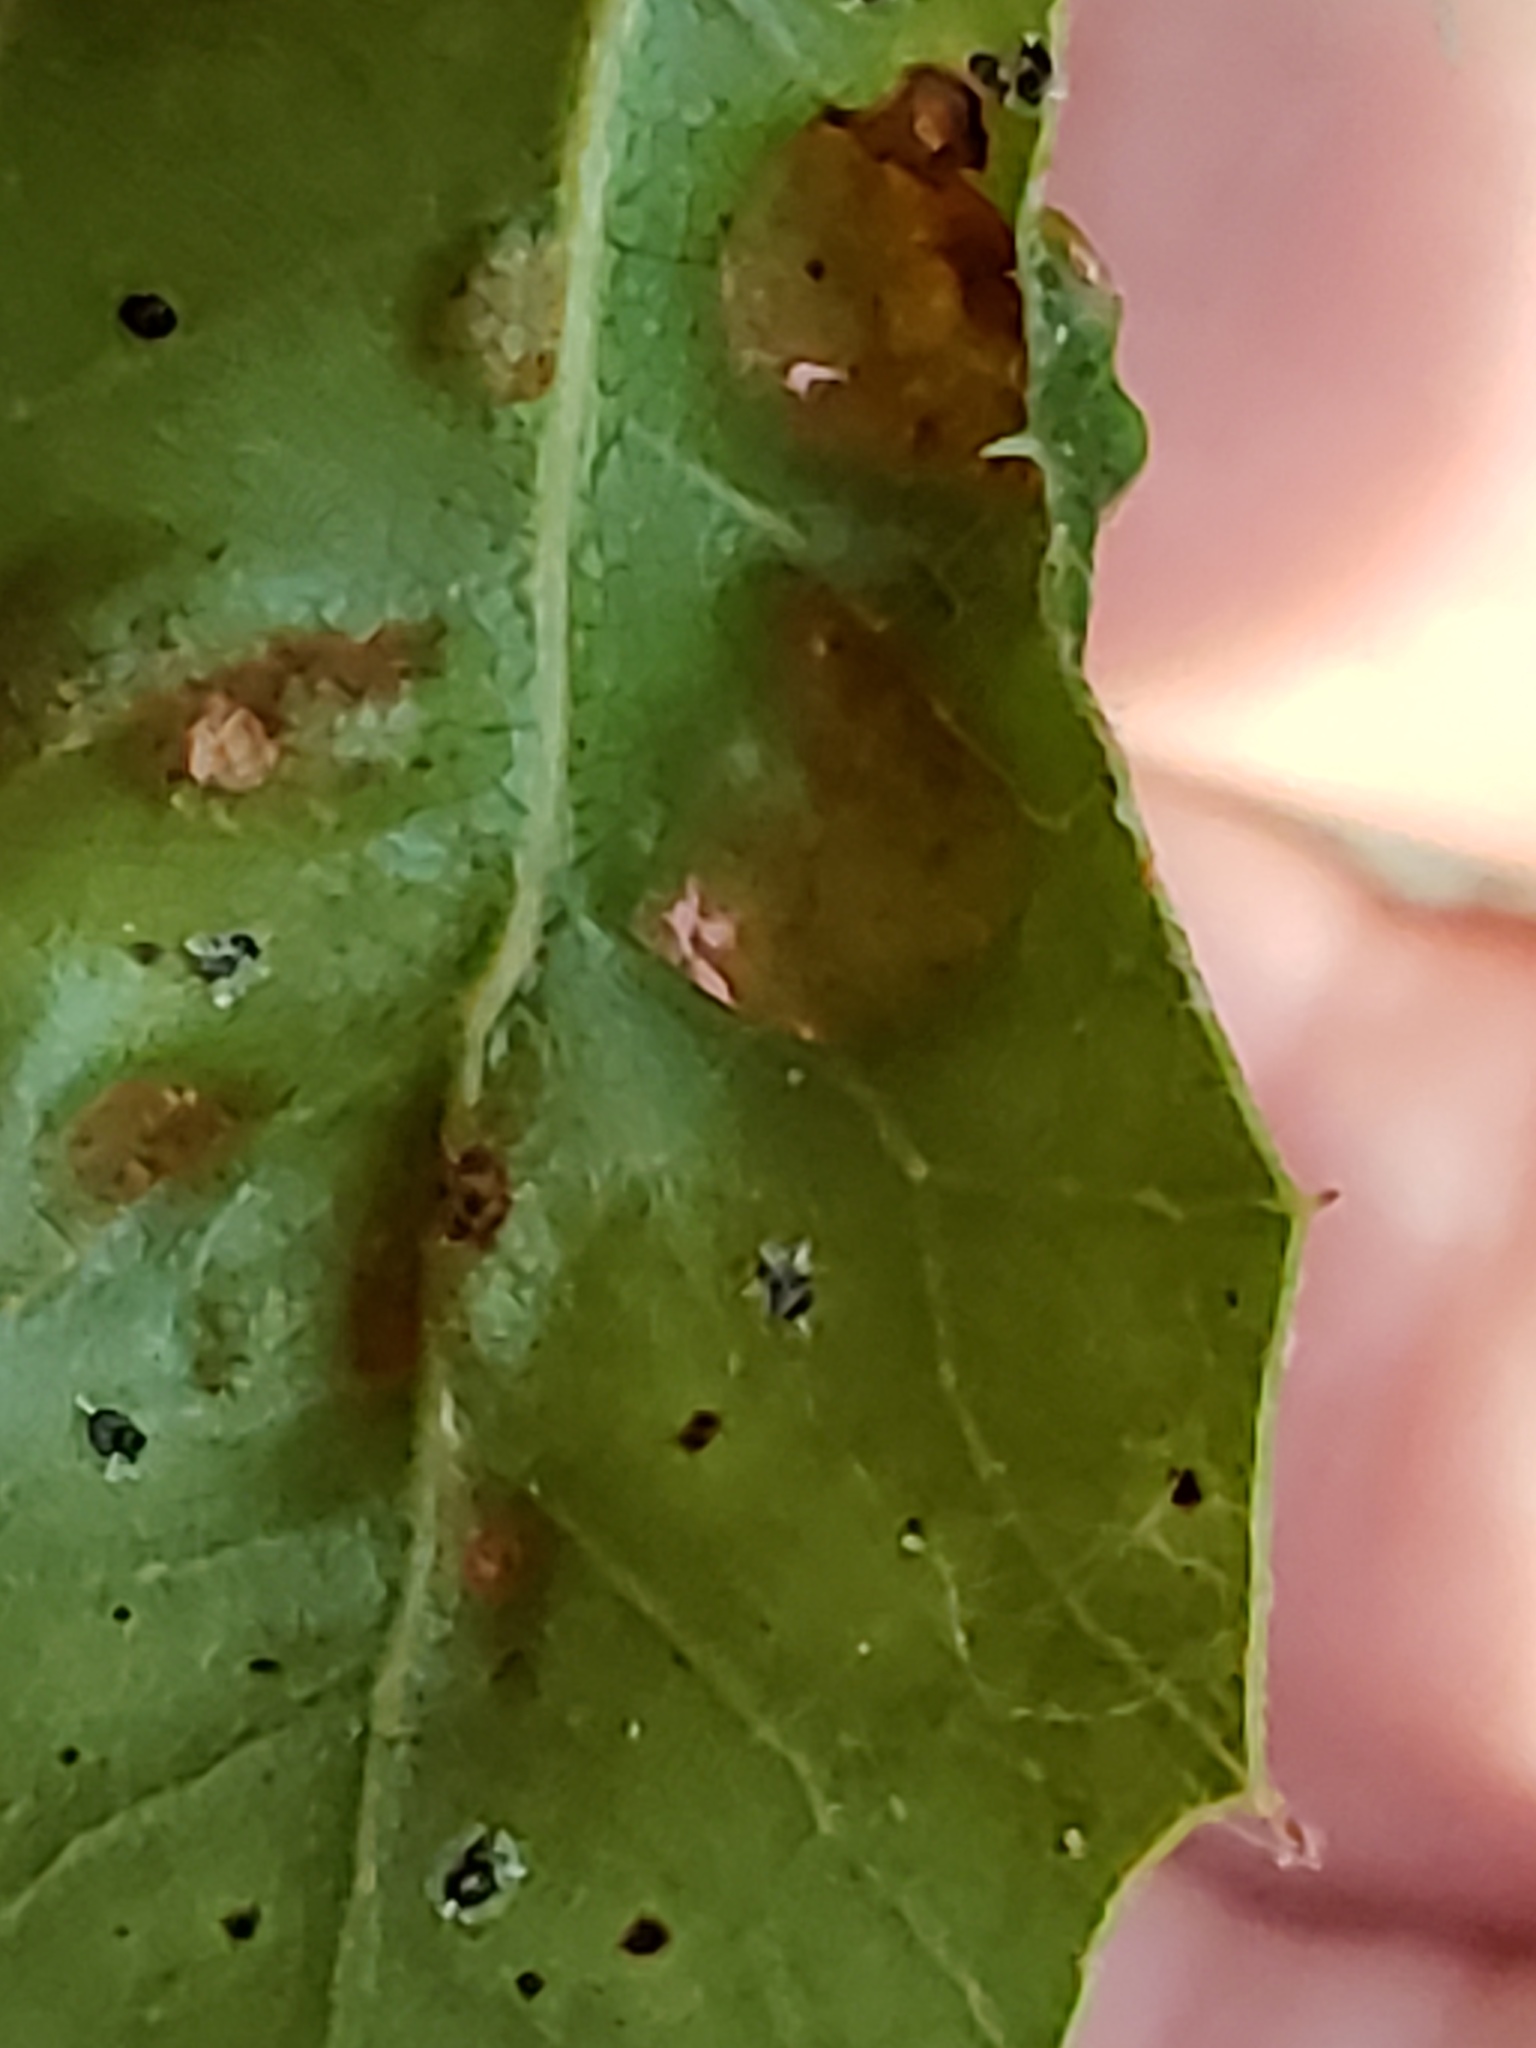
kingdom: Animalia
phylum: Arthropoda
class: Arachnida
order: Trombidiformes
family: Eriophyidae
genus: Aceria
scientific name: Aceria
